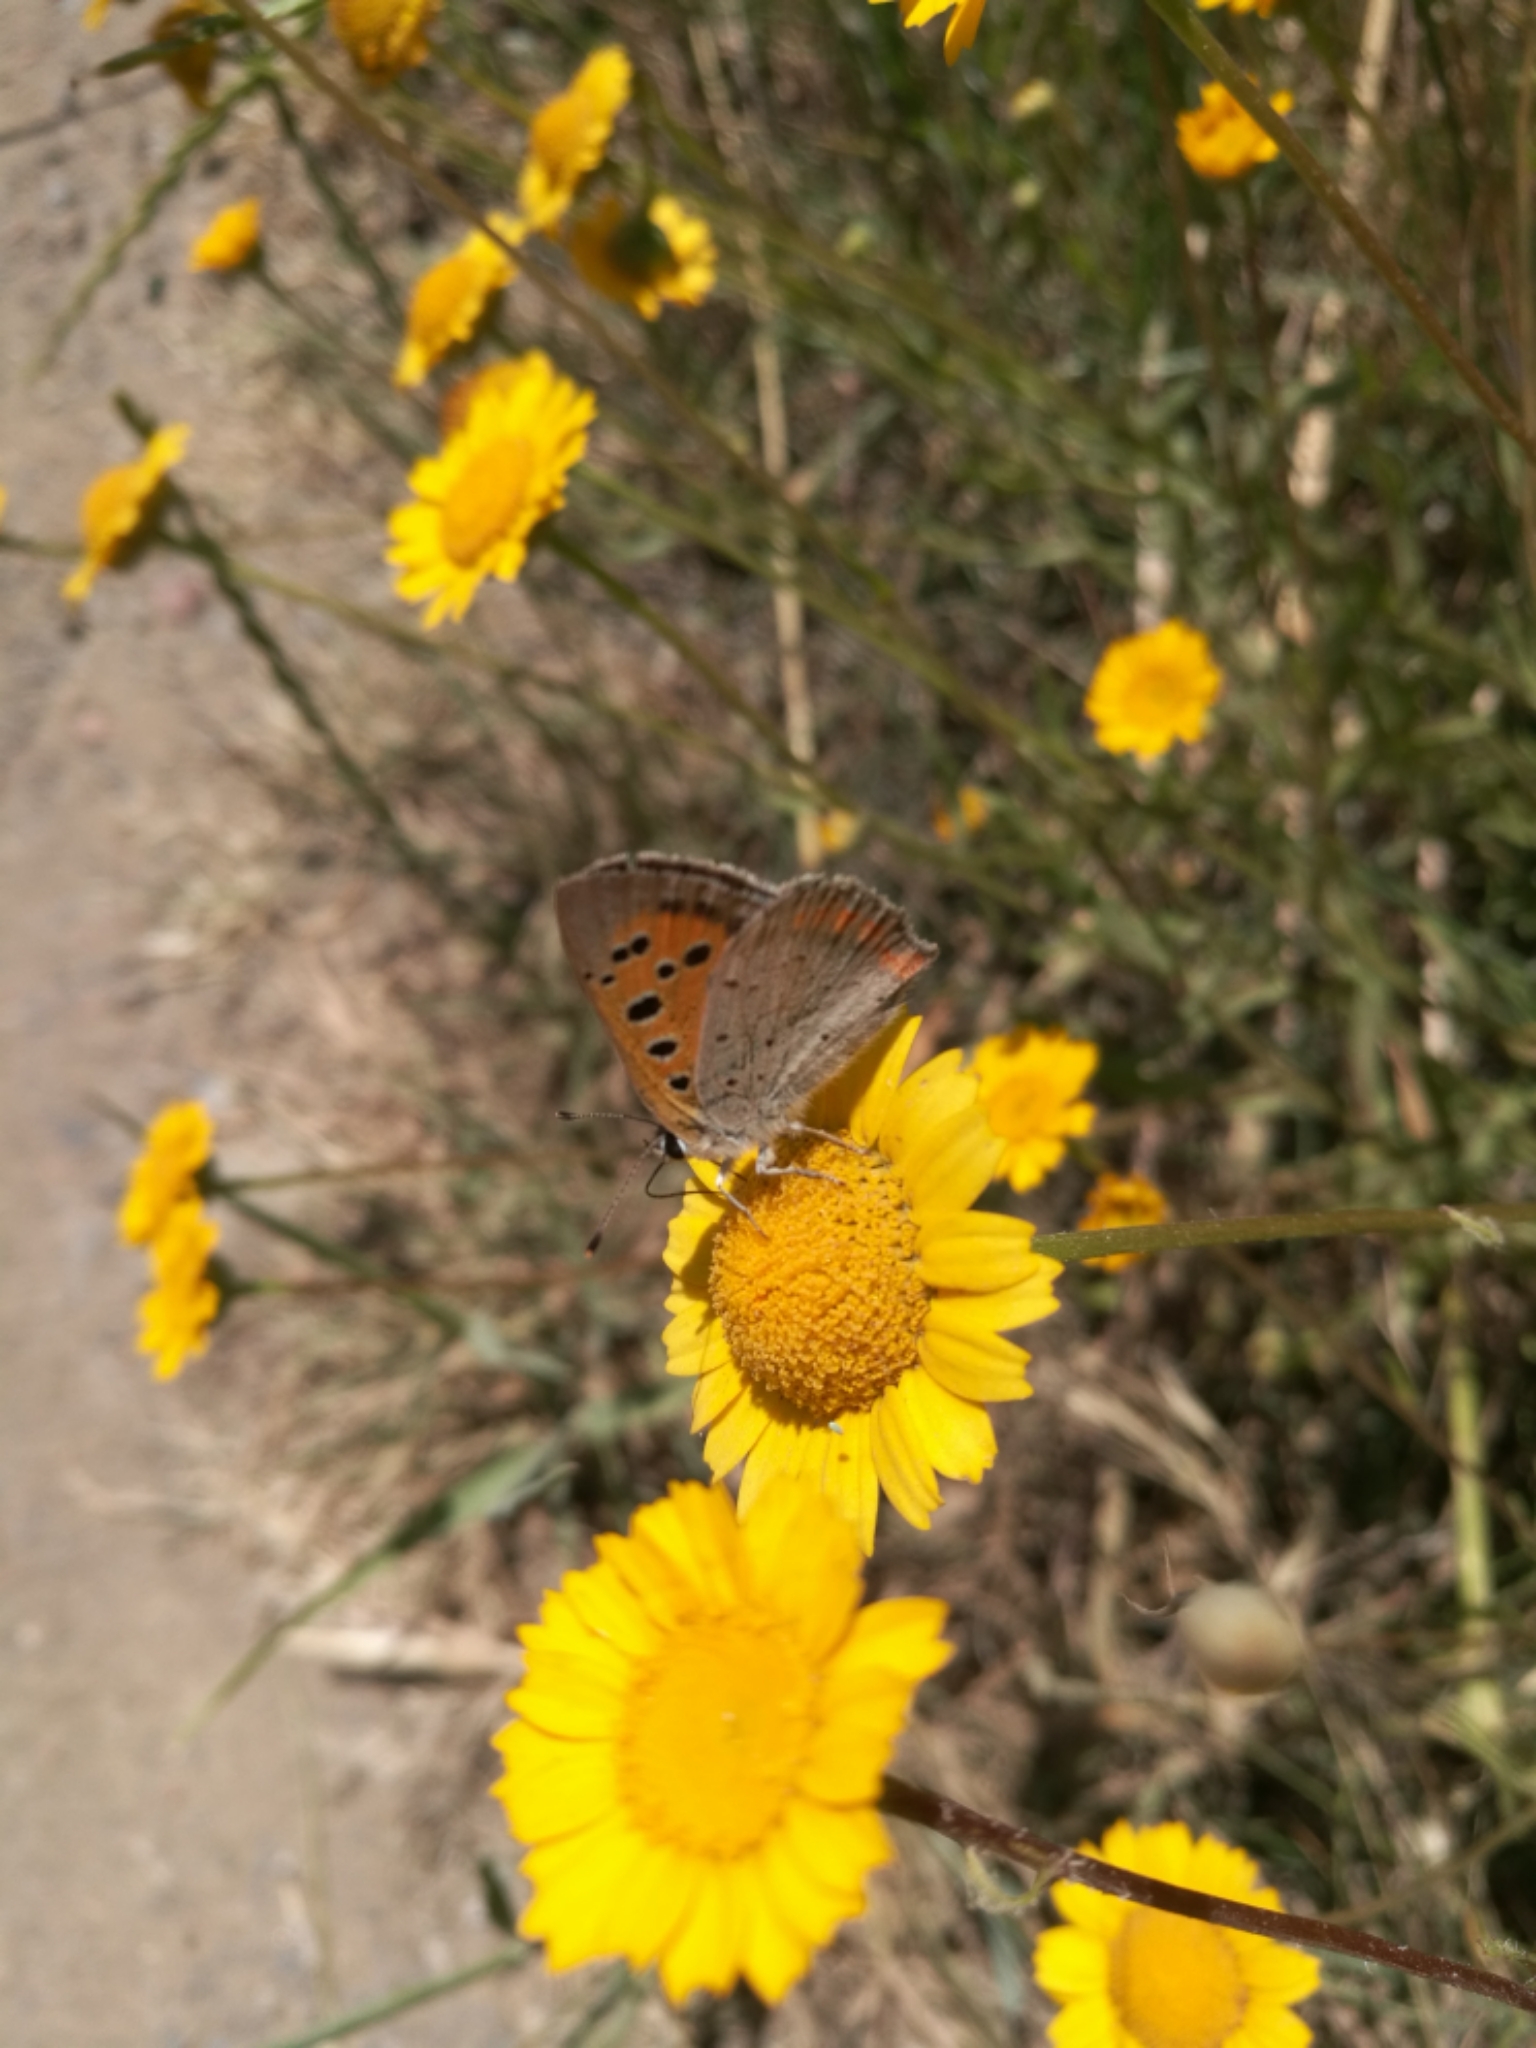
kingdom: Animalia
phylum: Arthropoda
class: Insecta
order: Lepidoptera
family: Lycaenidae
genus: Lycaena
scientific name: Lycaena phlaeas
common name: Small copper
